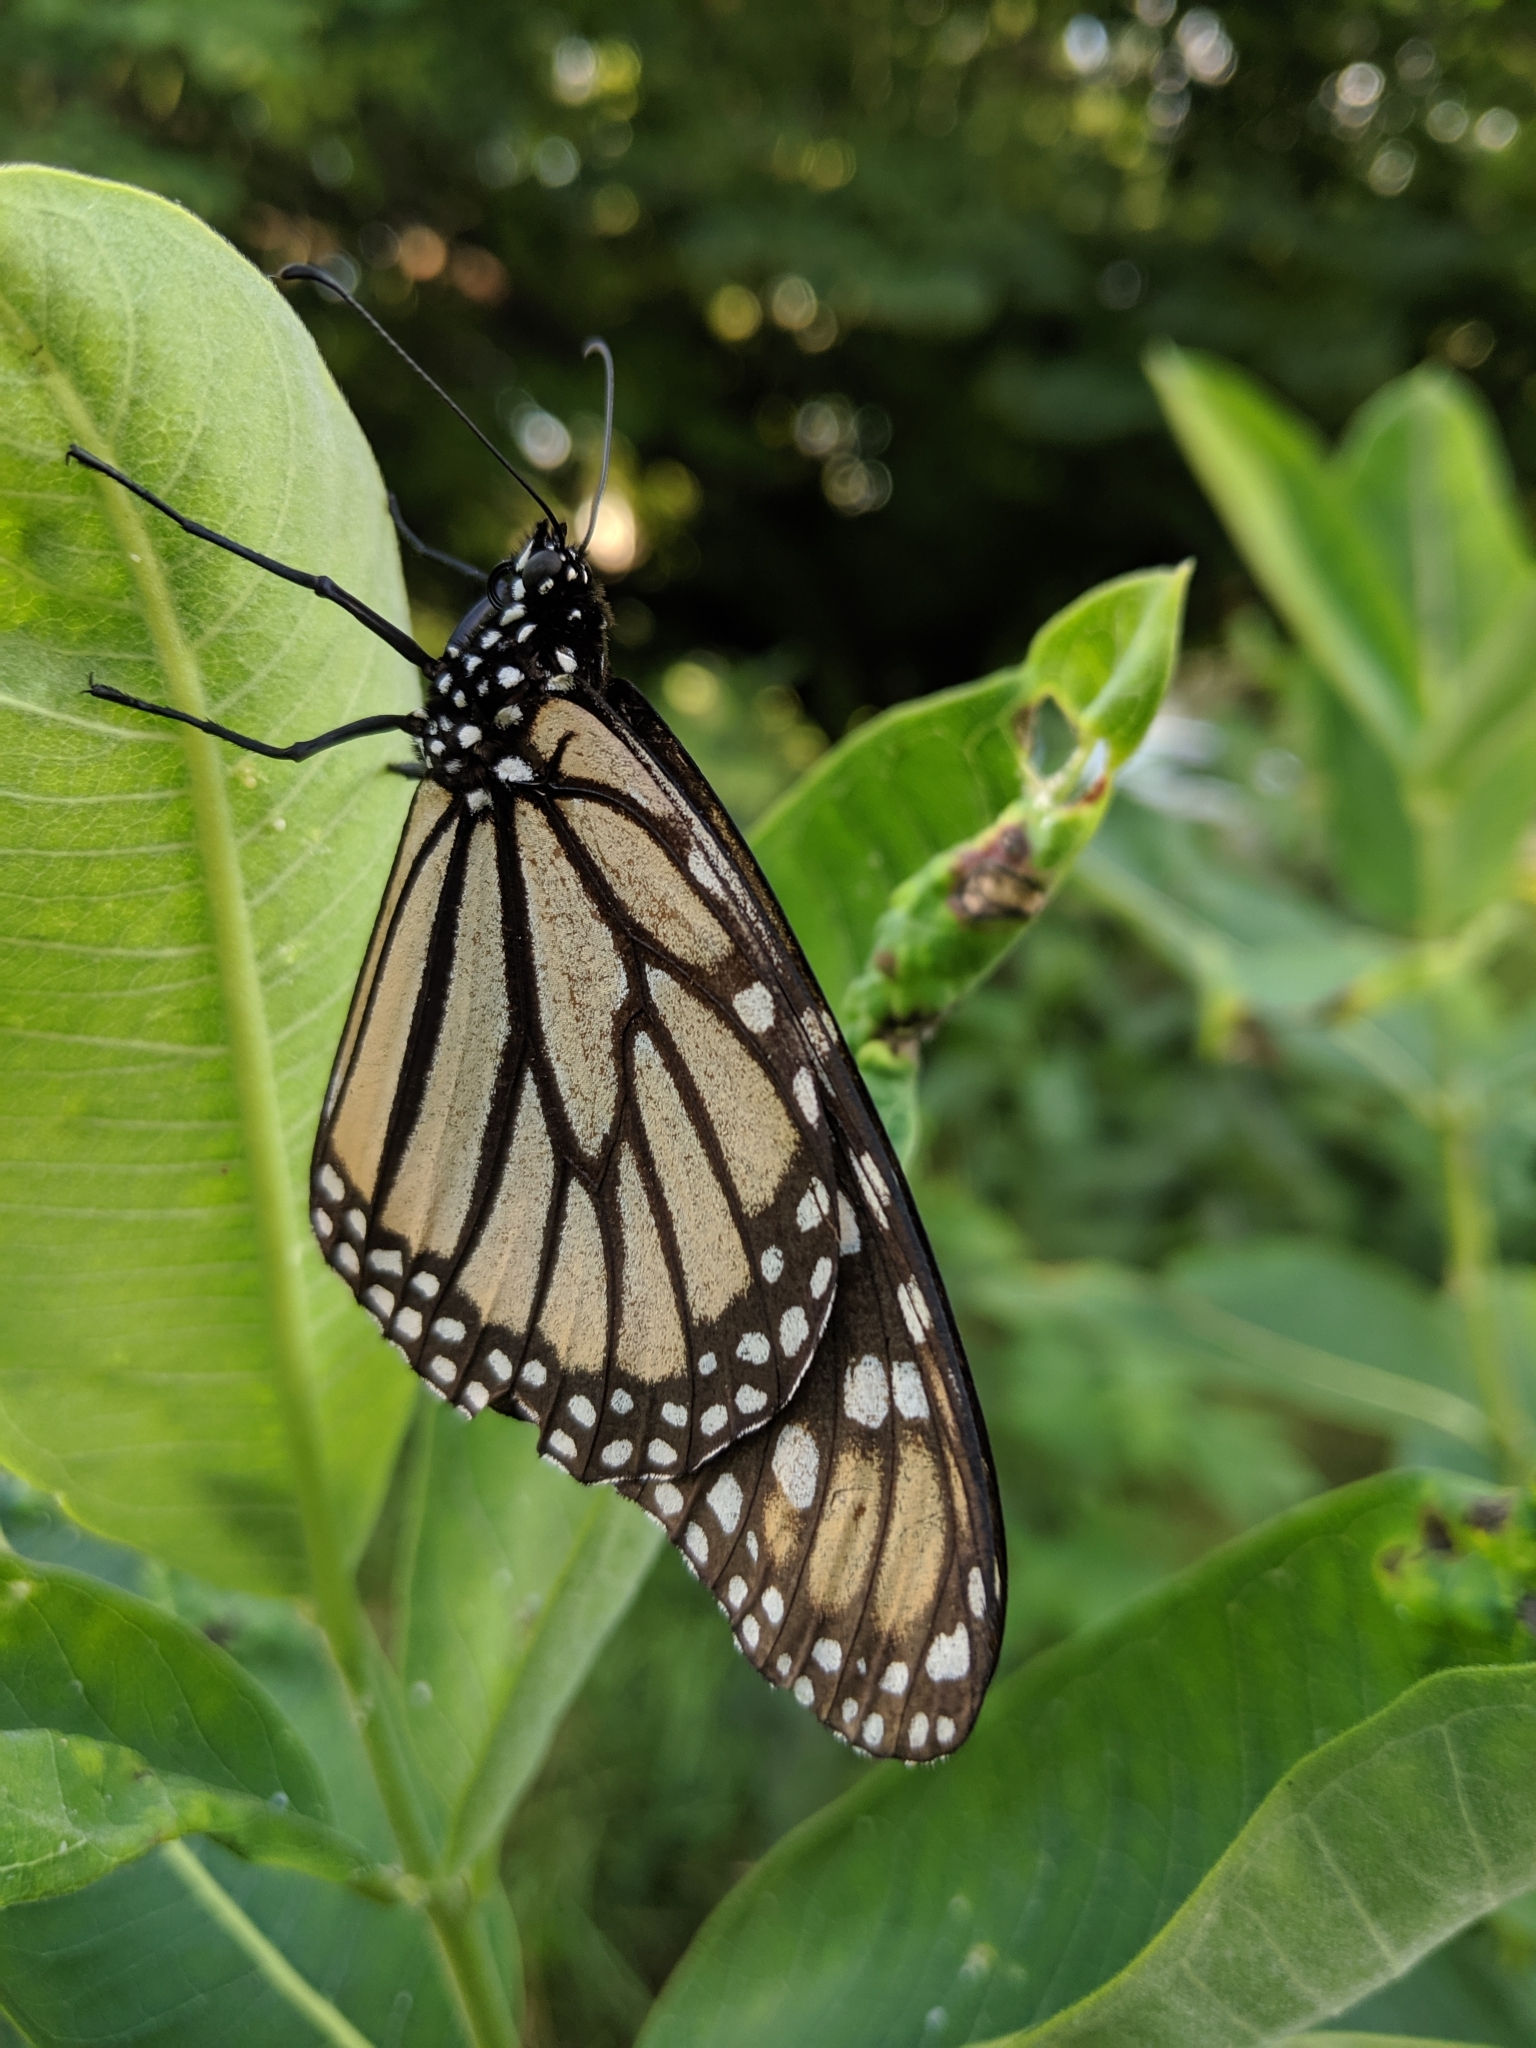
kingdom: Animalia
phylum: Arthropoda
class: Insecta
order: Lepidoptera
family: Nymphalidae
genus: Danaus
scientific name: Danaus plexippus
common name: Monarch
